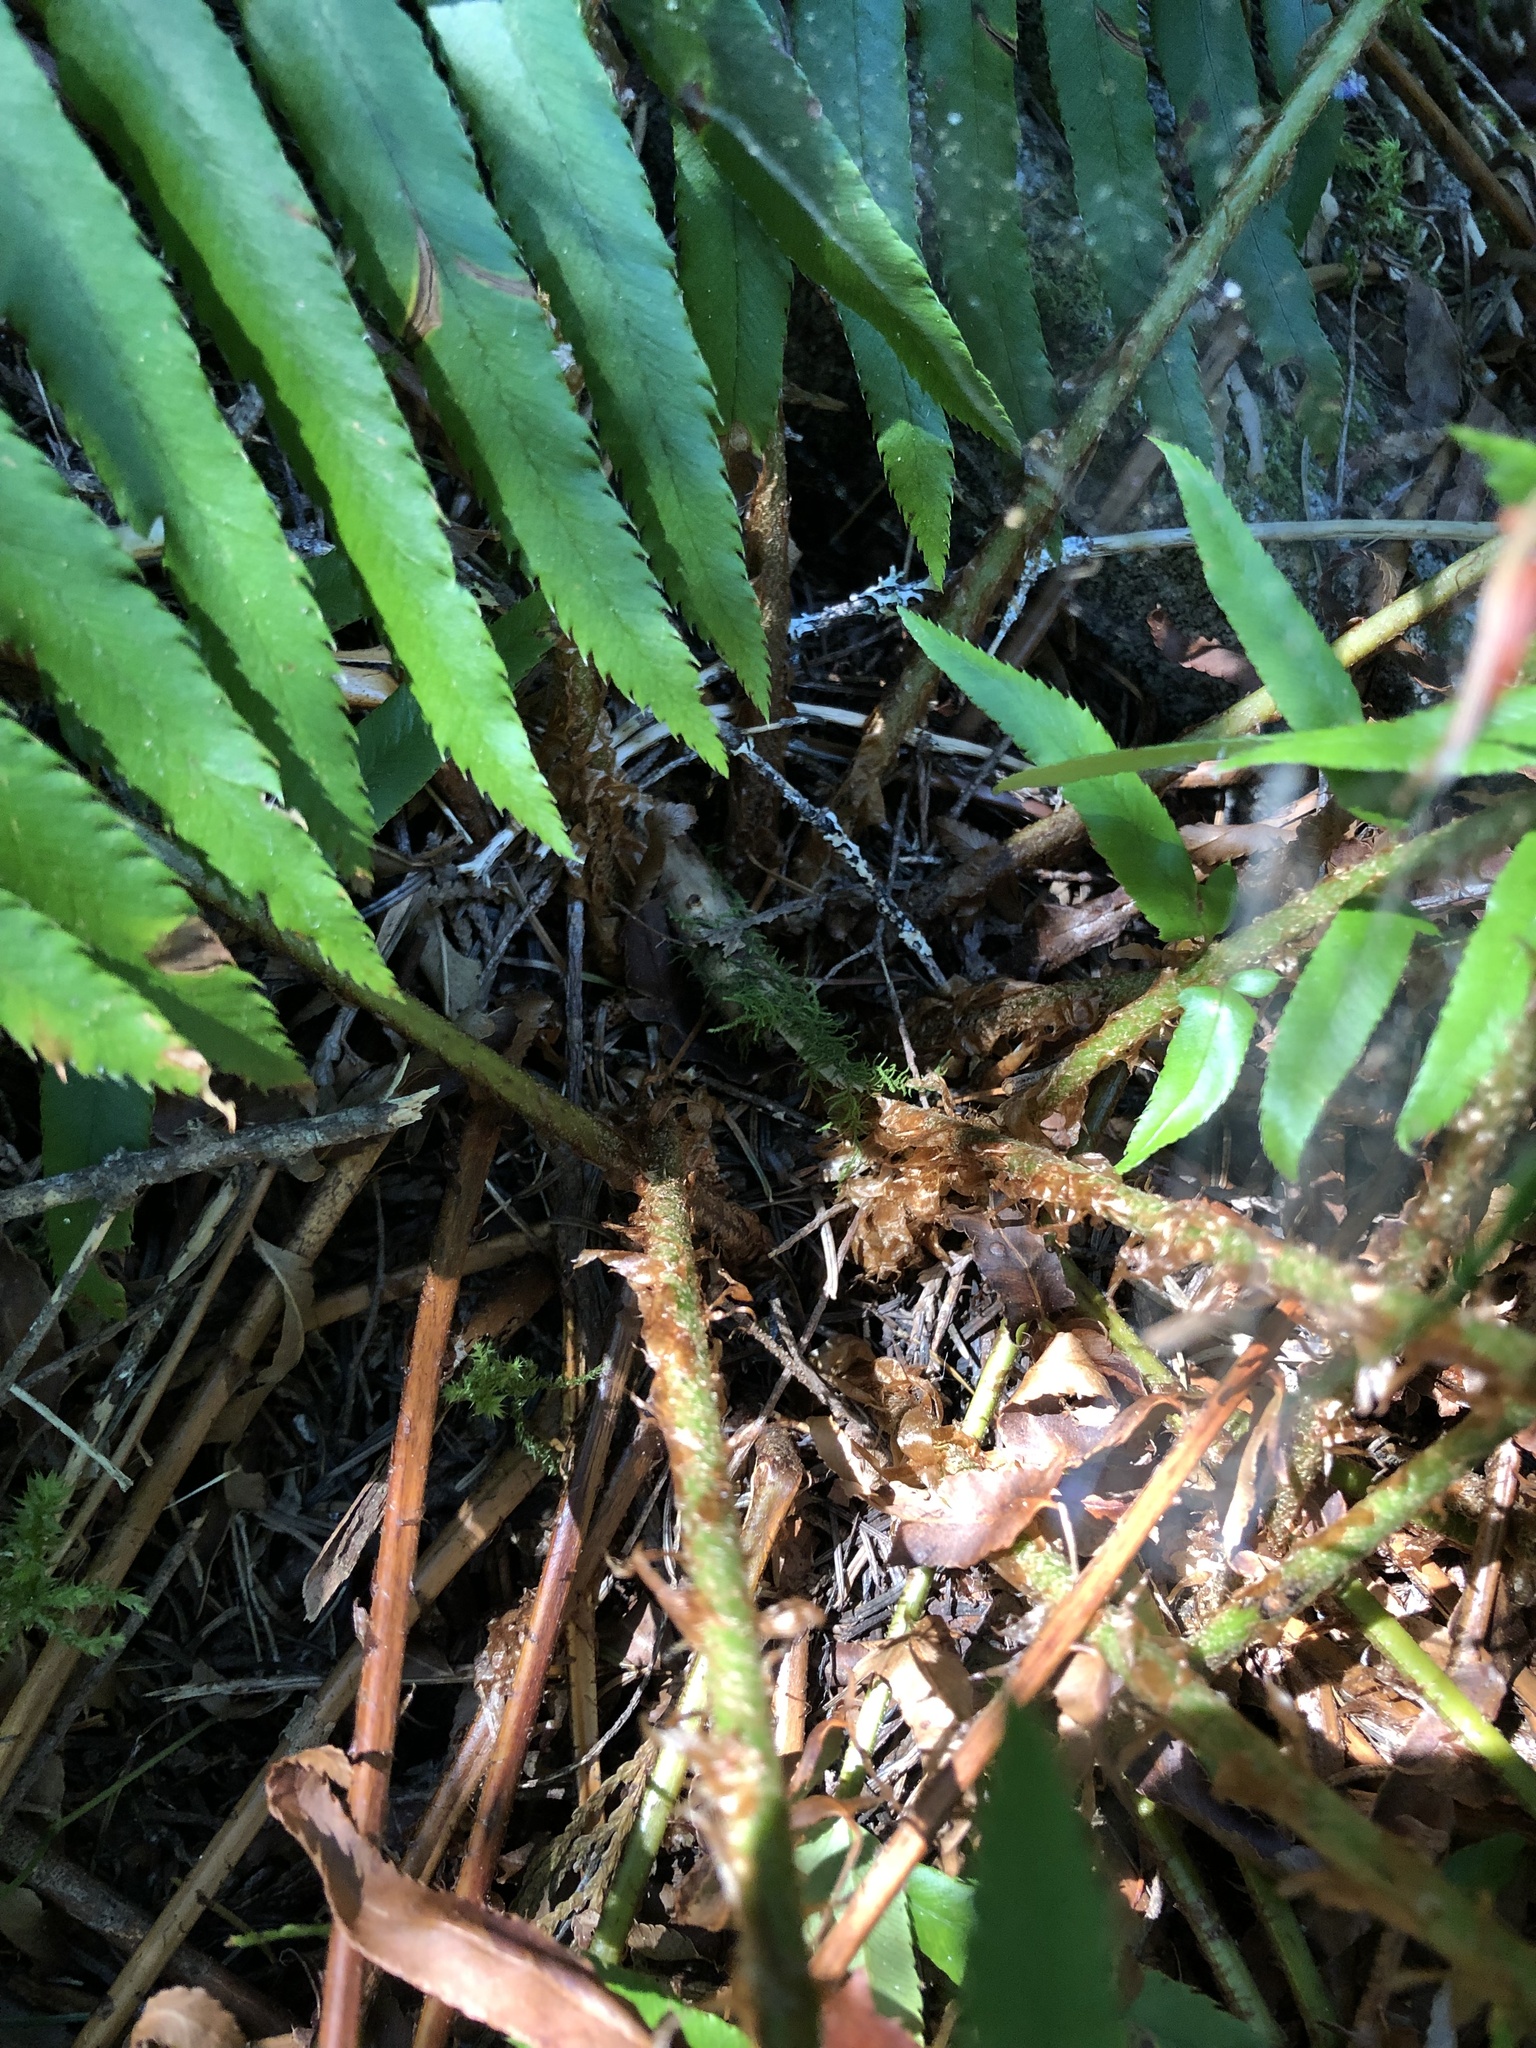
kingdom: Plantae
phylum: Tracheophyta
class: Polypodiopsida
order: Polypodiales
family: Dryopteridaceae
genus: Polystichum
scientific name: Polystichum munitum
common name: Western sword-fern
